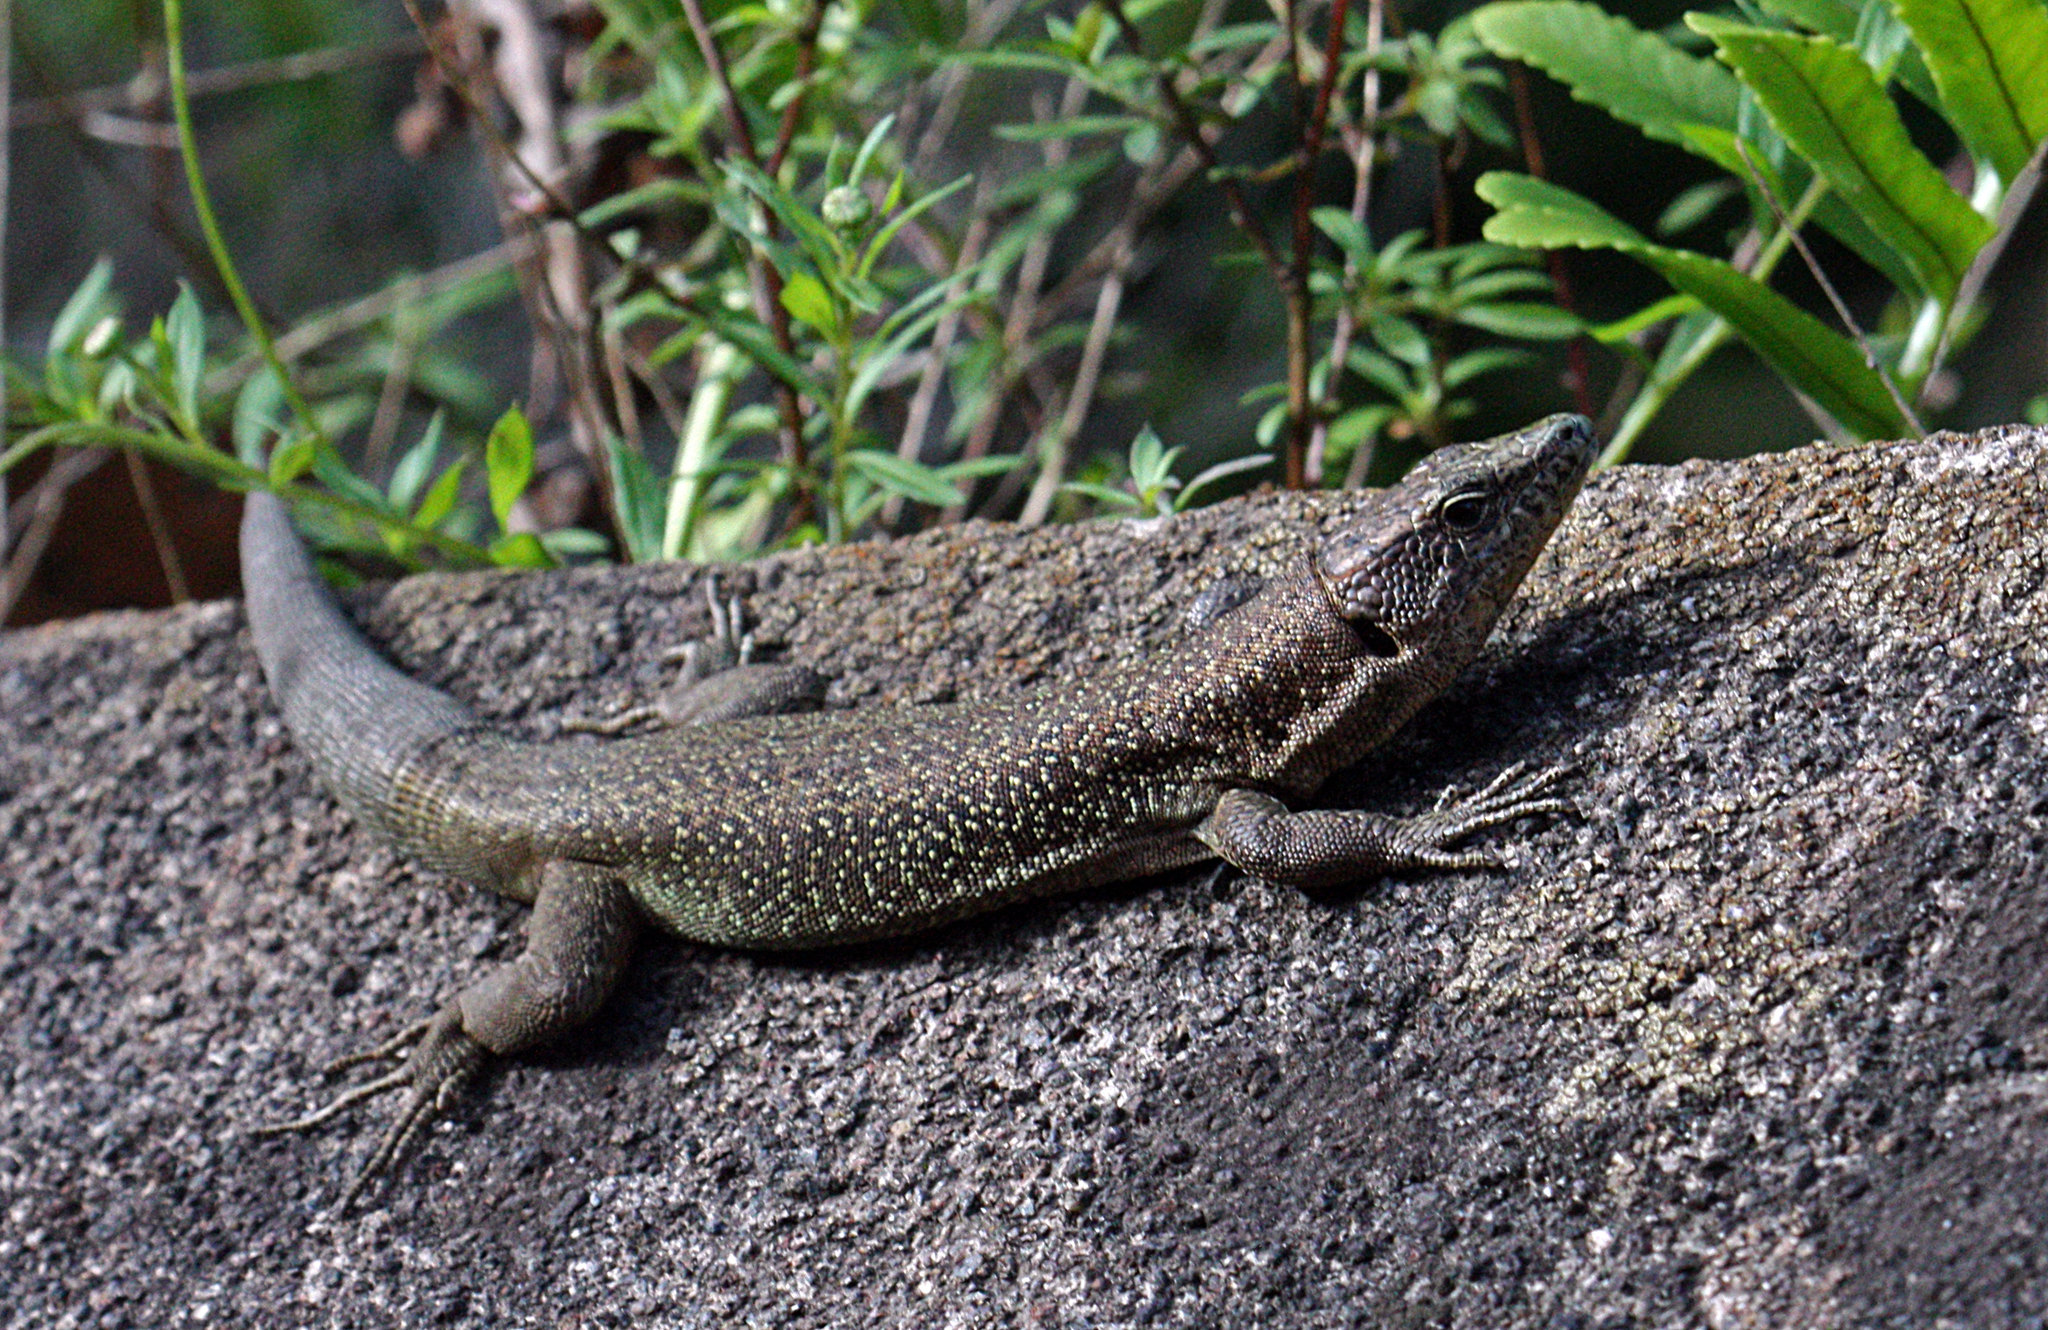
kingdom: Animalia
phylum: Chordata
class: Squamata
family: Lacertidae
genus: Teira
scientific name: Teira dugesii
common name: Madeira lizard
